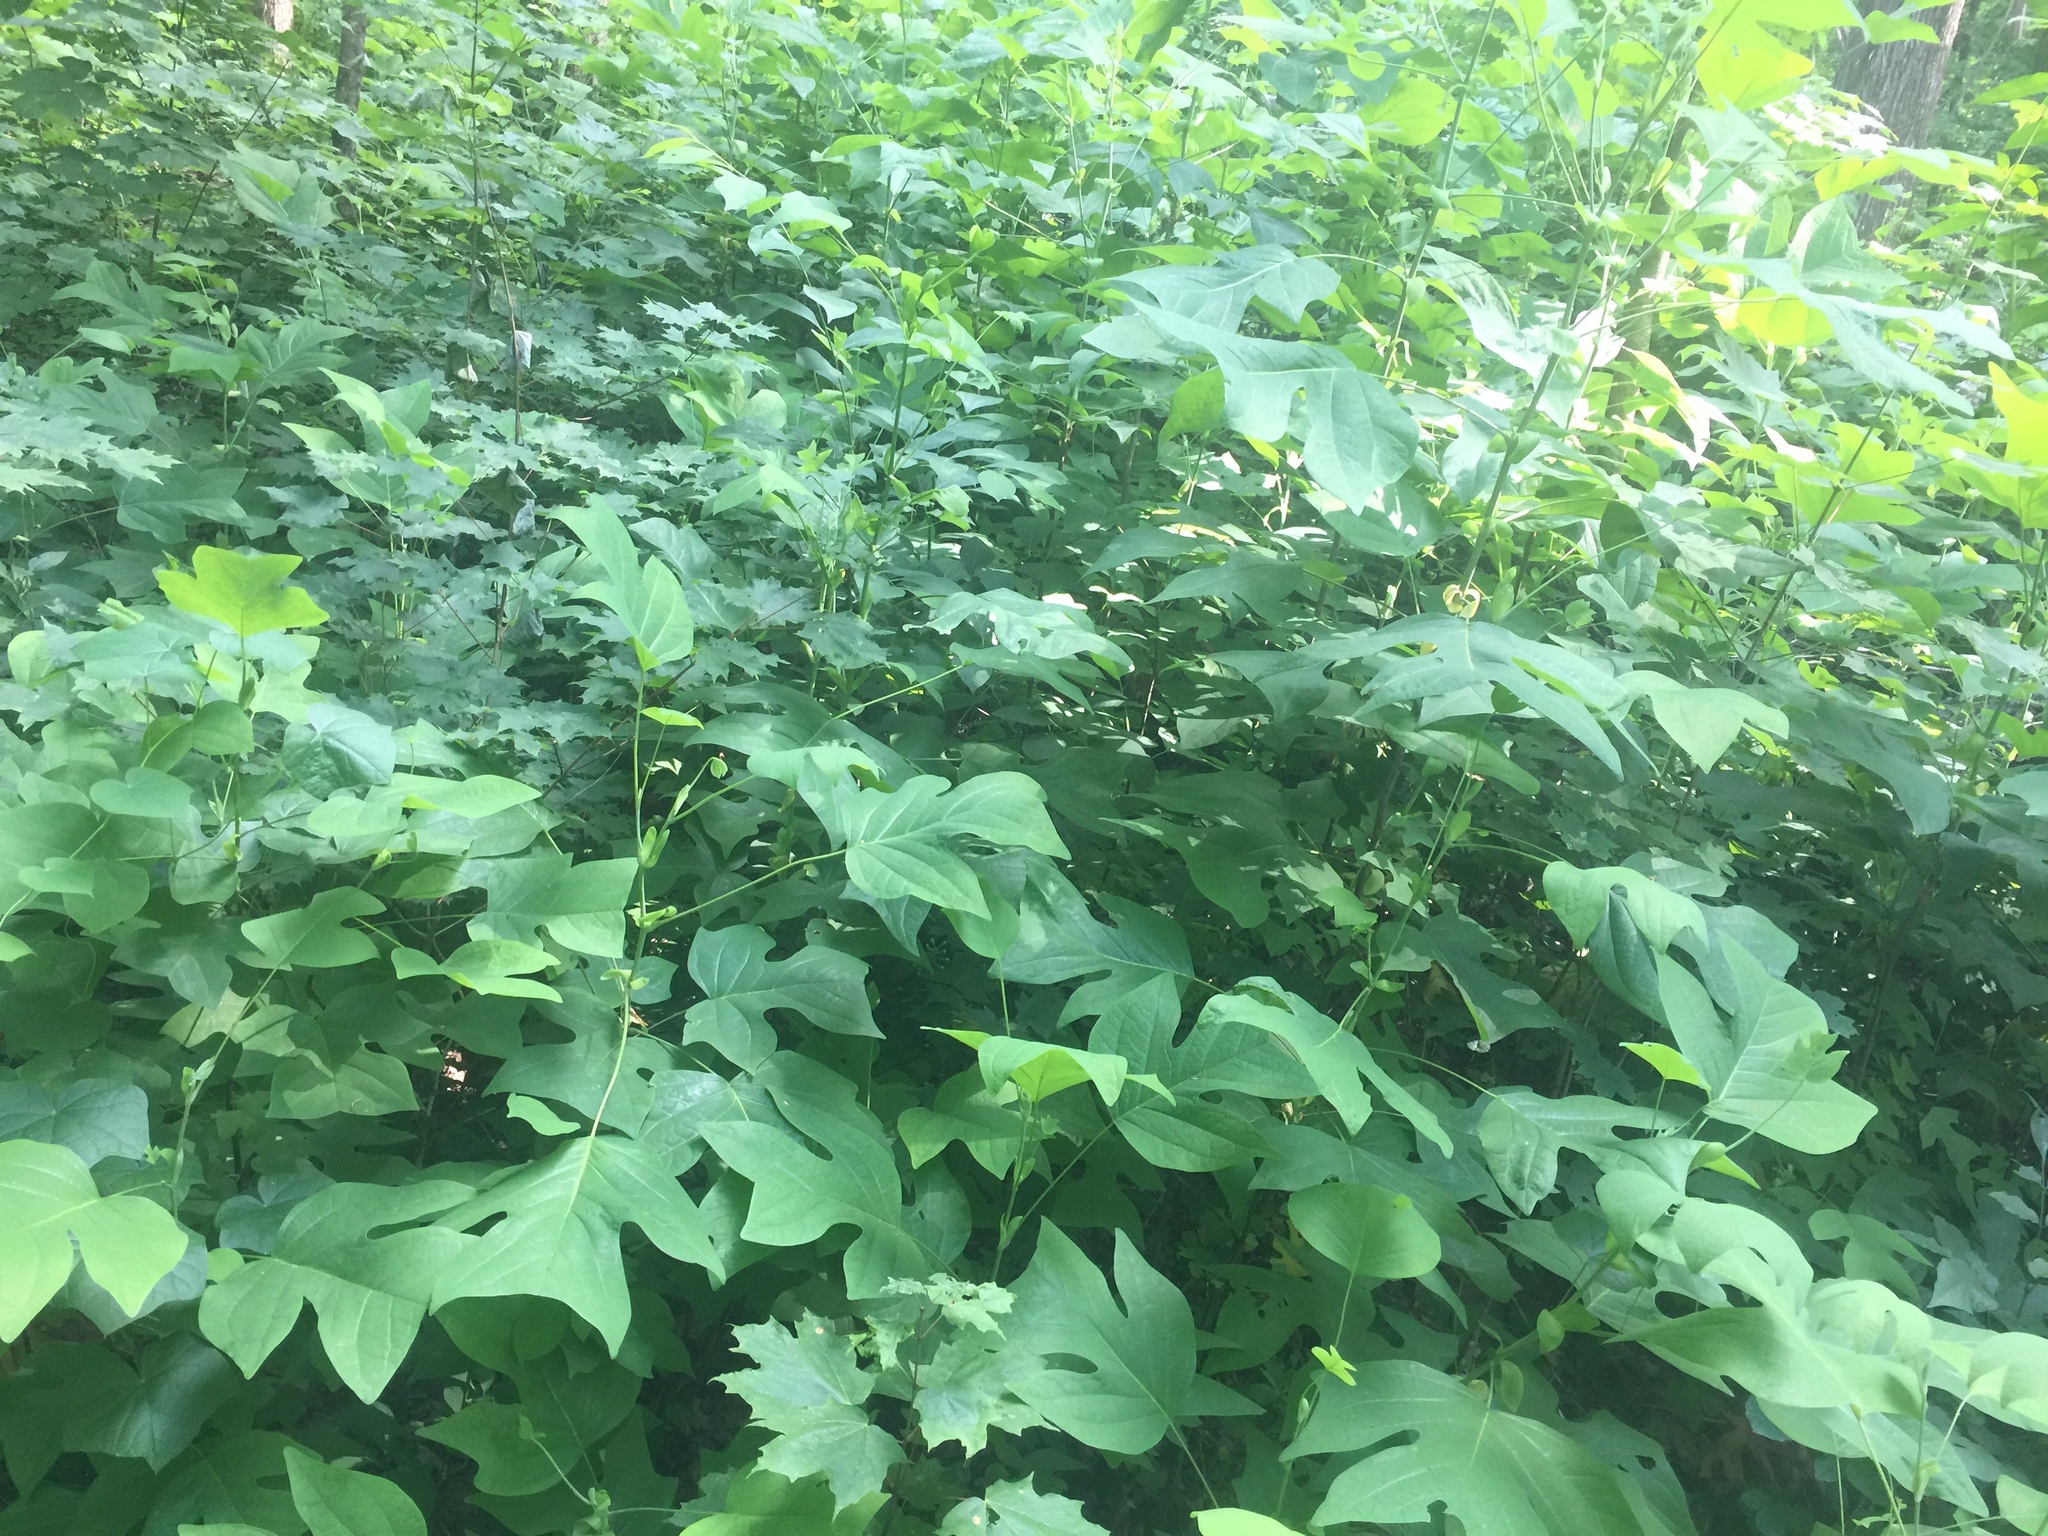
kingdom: Plantae
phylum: Tracheophyta
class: Magnoliopsida
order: Magnoliales
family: Magnoliaceae
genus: Liriodendron
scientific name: Liriodendron tulipifera
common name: Tulip tree
